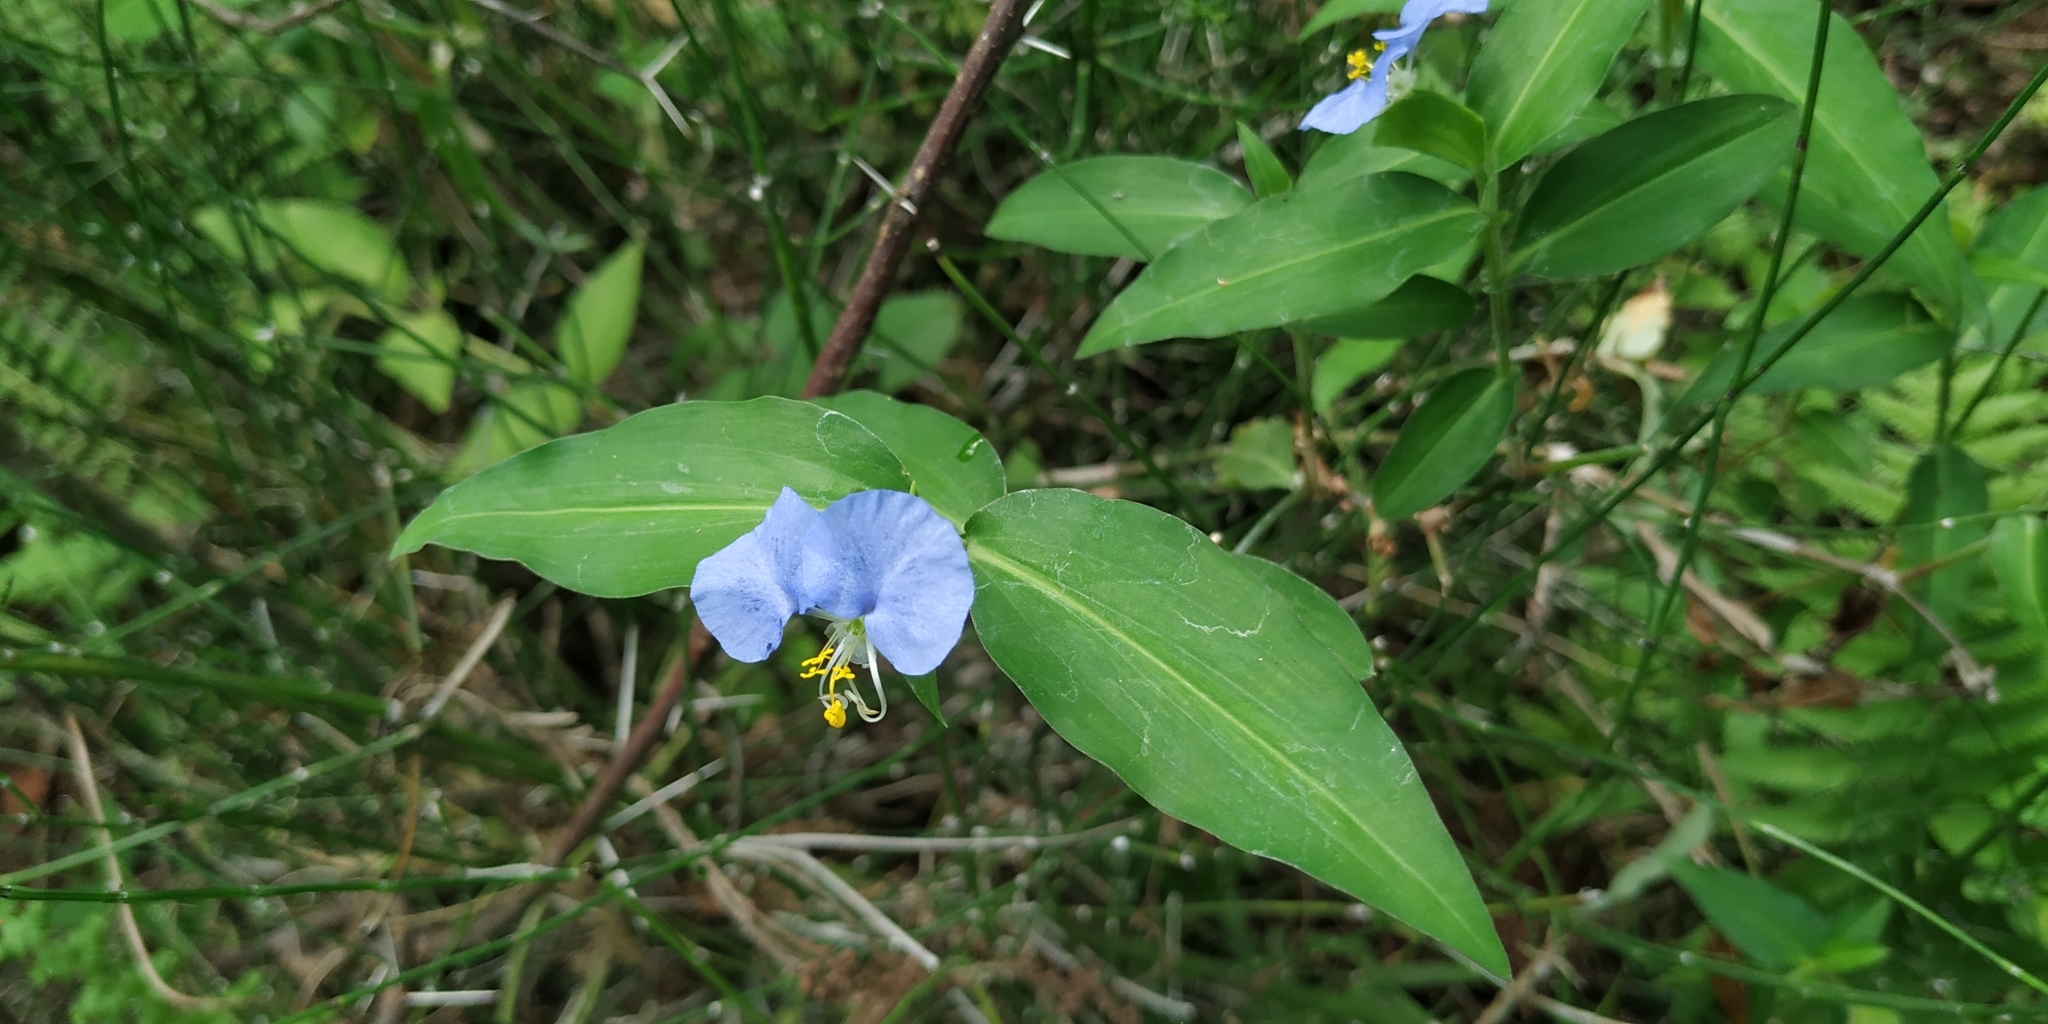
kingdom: Plantae
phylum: Tracheophyta
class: Liliopsida
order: Commelinales
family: Commelinaceae
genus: Commelina
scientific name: Commelina erecta
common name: Blousel blommetjie
